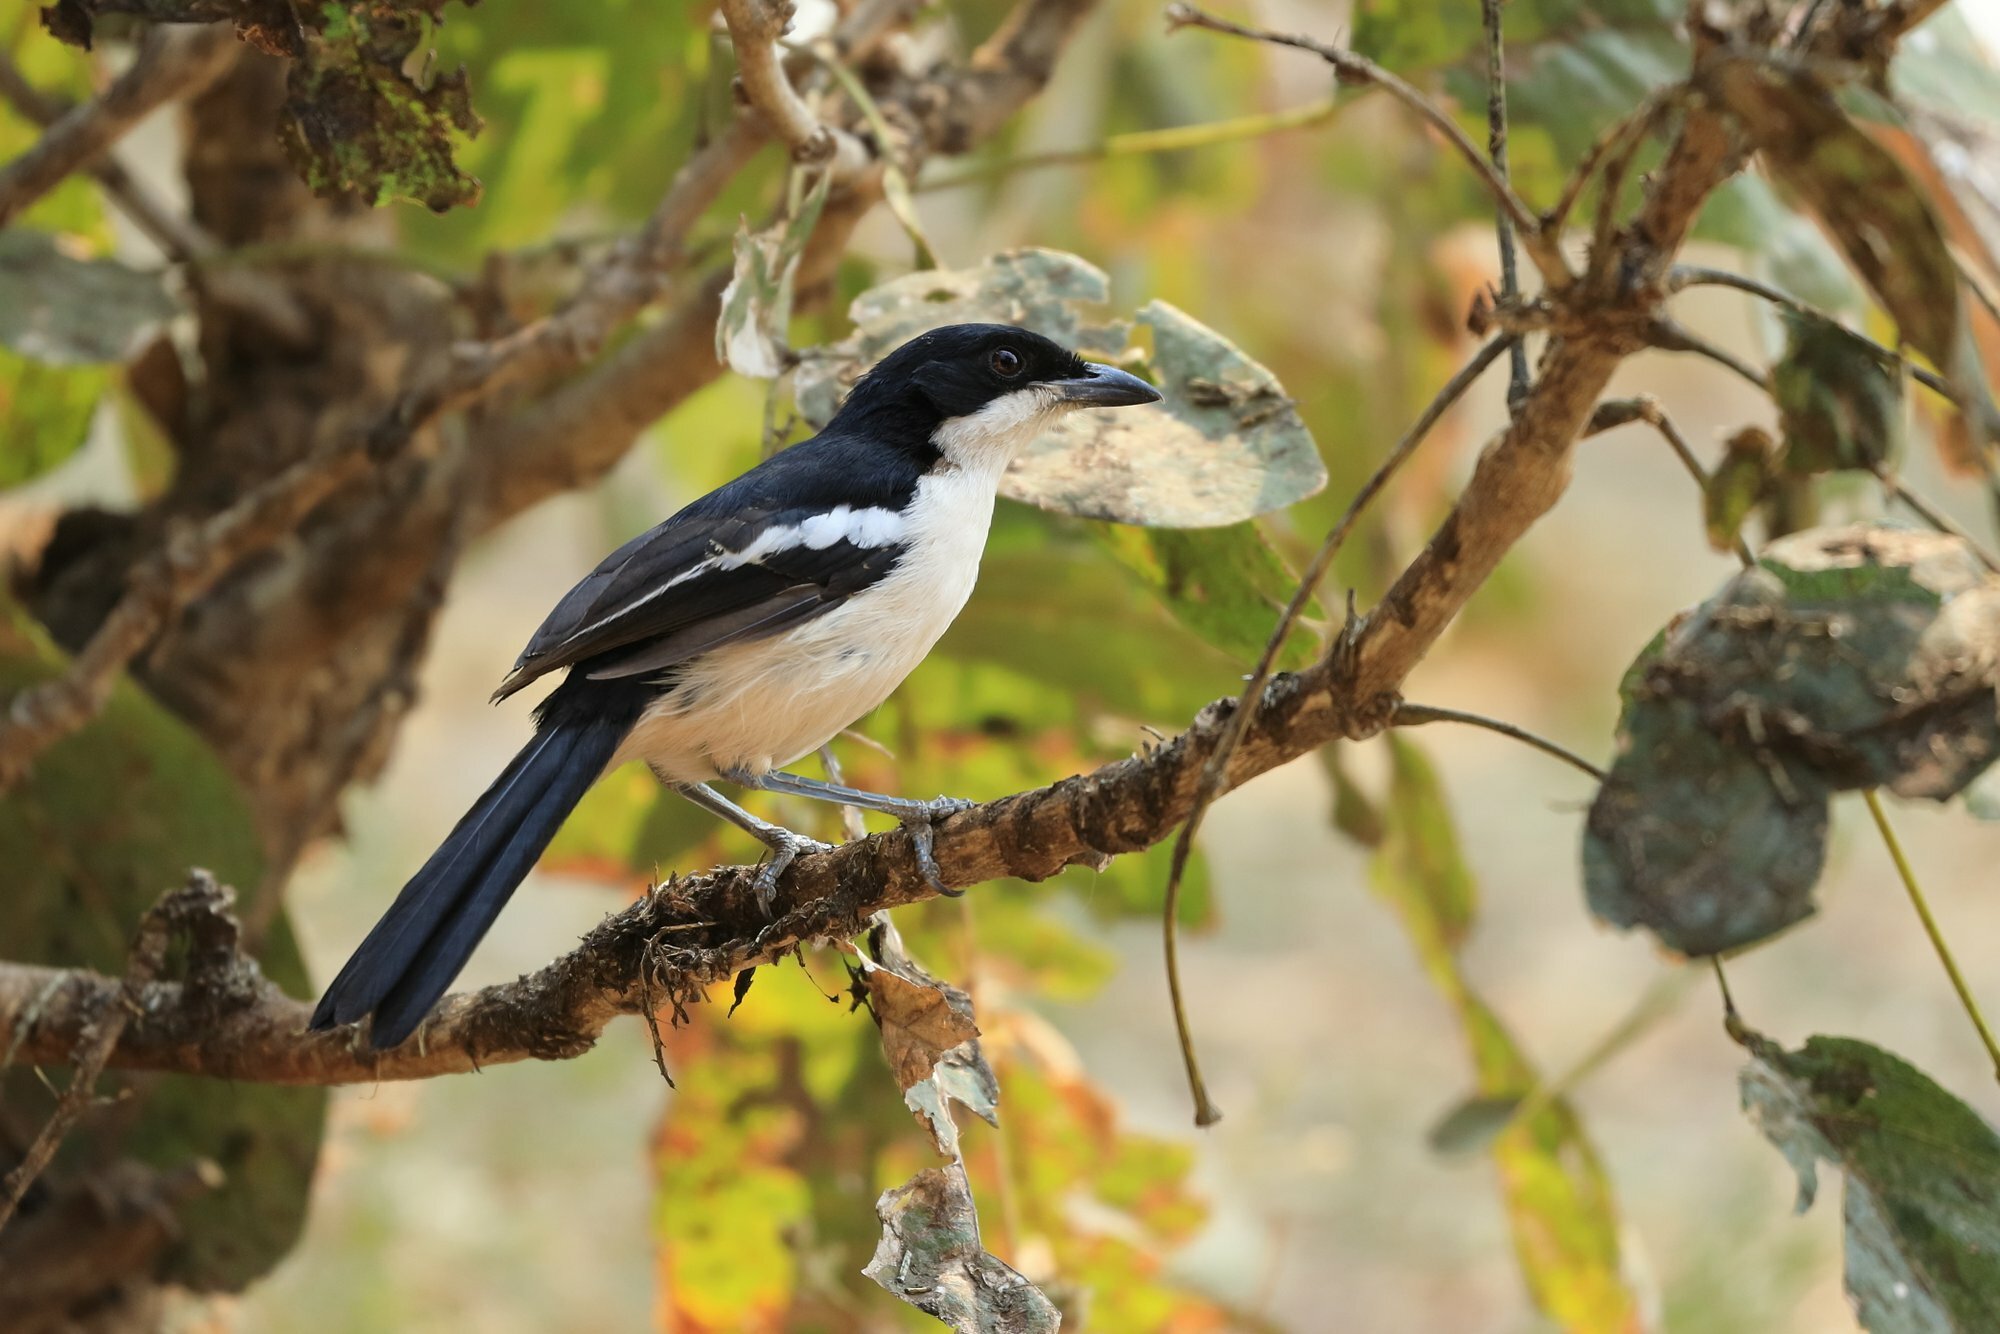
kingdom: Animalia
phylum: Chordata
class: Aves
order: Passeriformes
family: Malaconotidae
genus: Laniarius
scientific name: Laniarius major
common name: Tropical boubou
